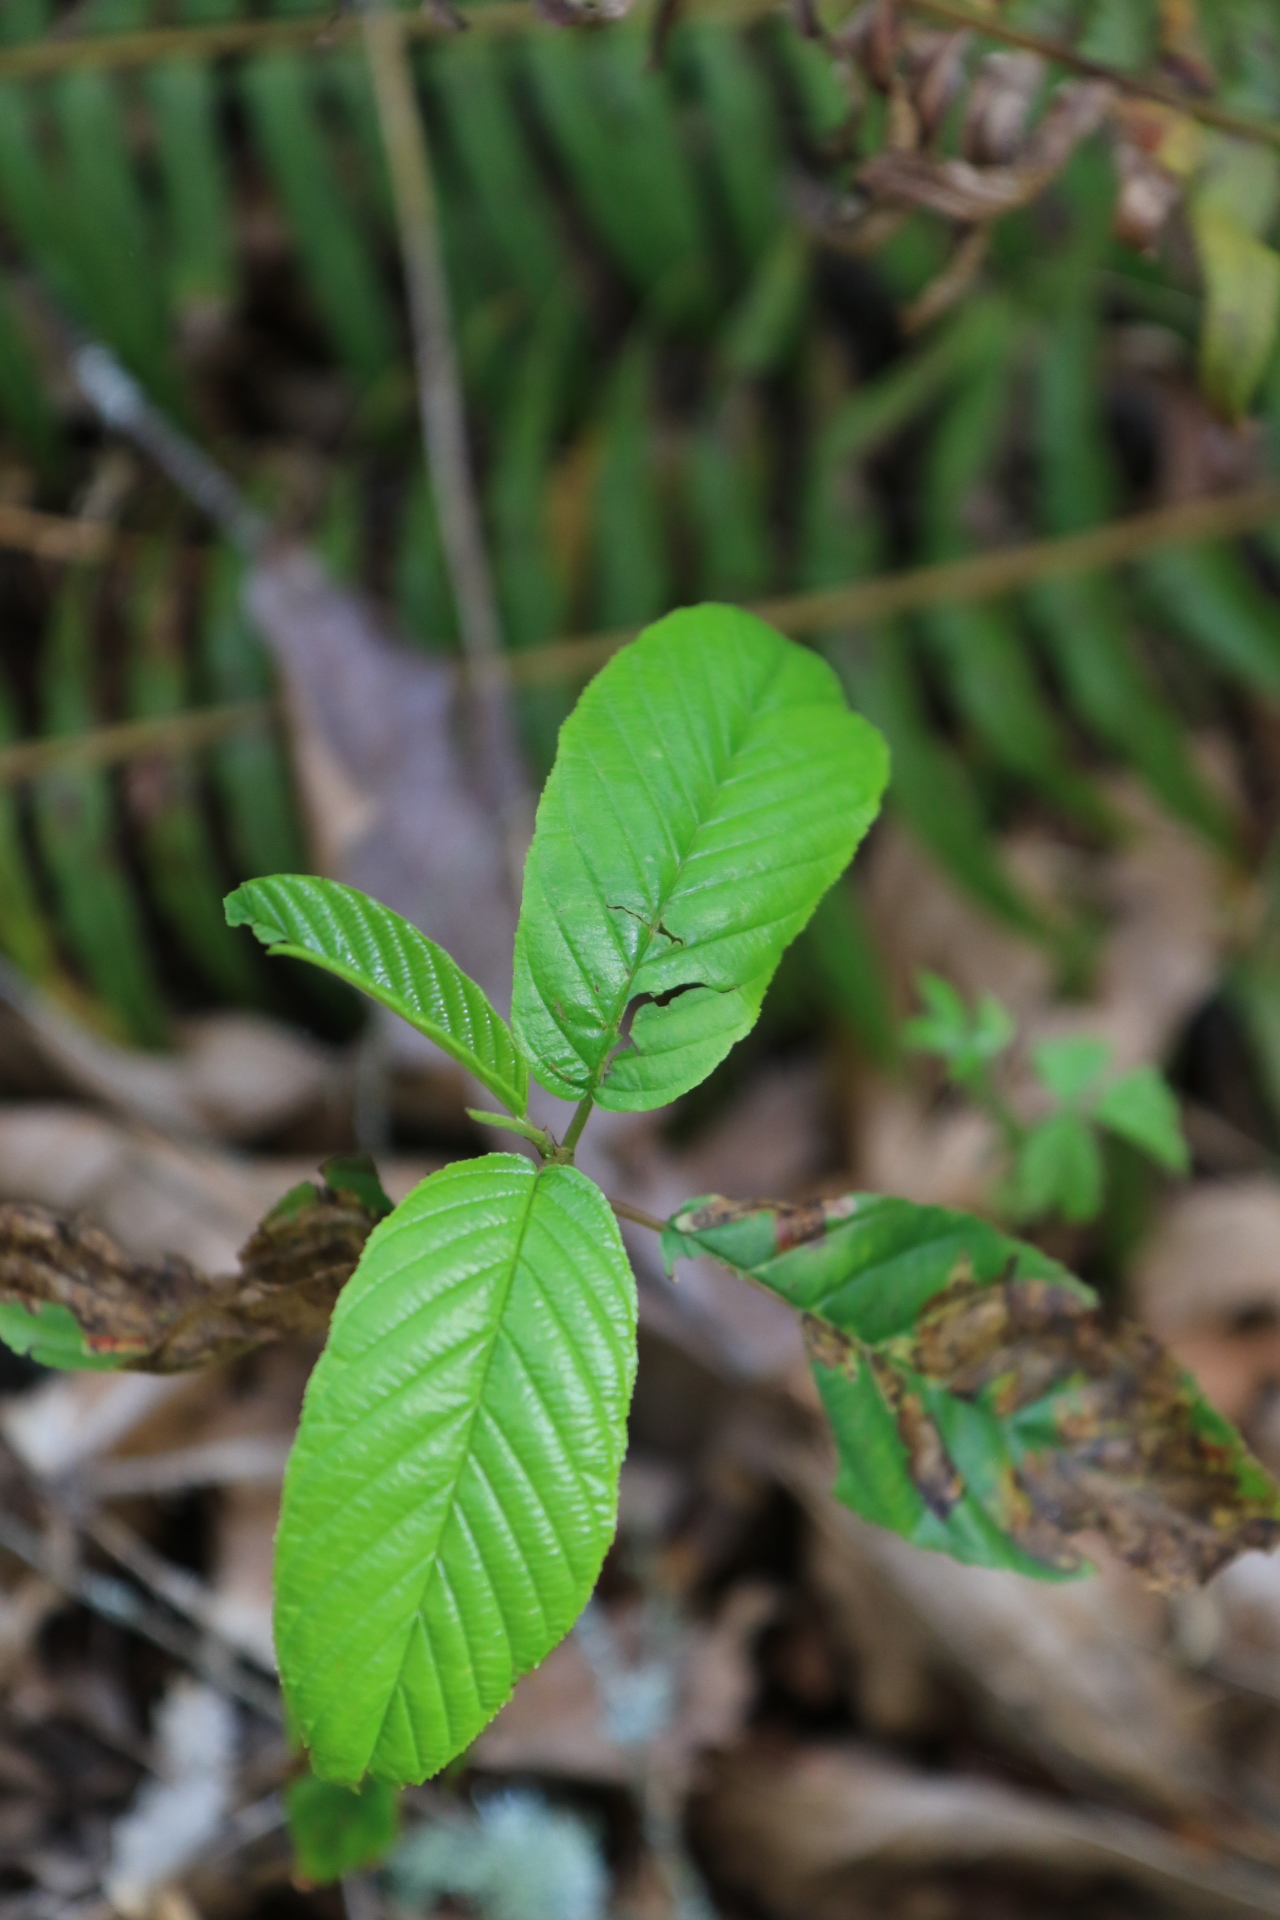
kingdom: Plantae
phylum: Tracheophyta
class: Magnoliopsida
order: Rosales
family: Rhamnaceae
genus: Frangula
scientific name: Frangula purshiana
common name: Cascara buckthorn
